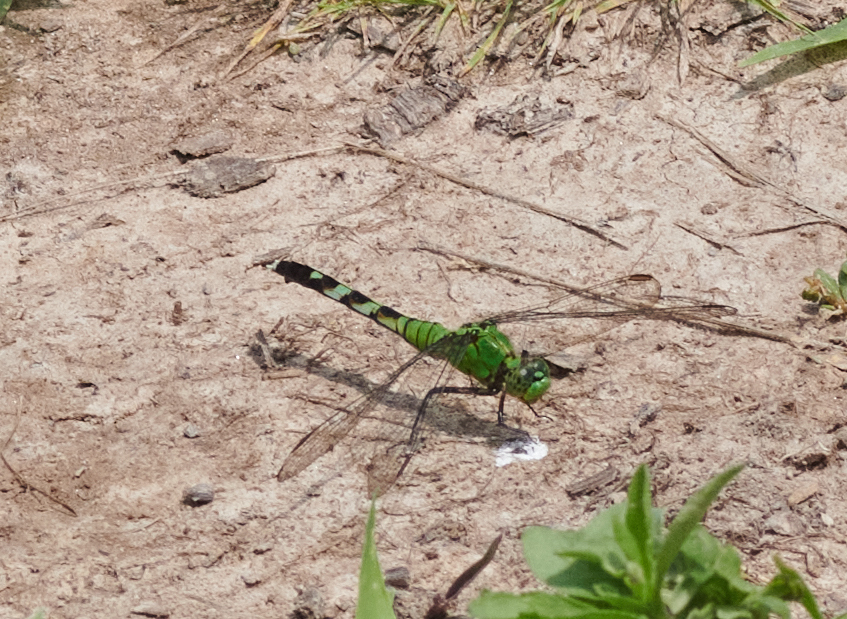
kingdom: Animalia
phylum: Arthropoda
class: Insecta
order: Odonata
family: Libellulidae
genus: Erythemis
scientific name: Erythemis simplicicollis
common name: Eastern pondhawk
